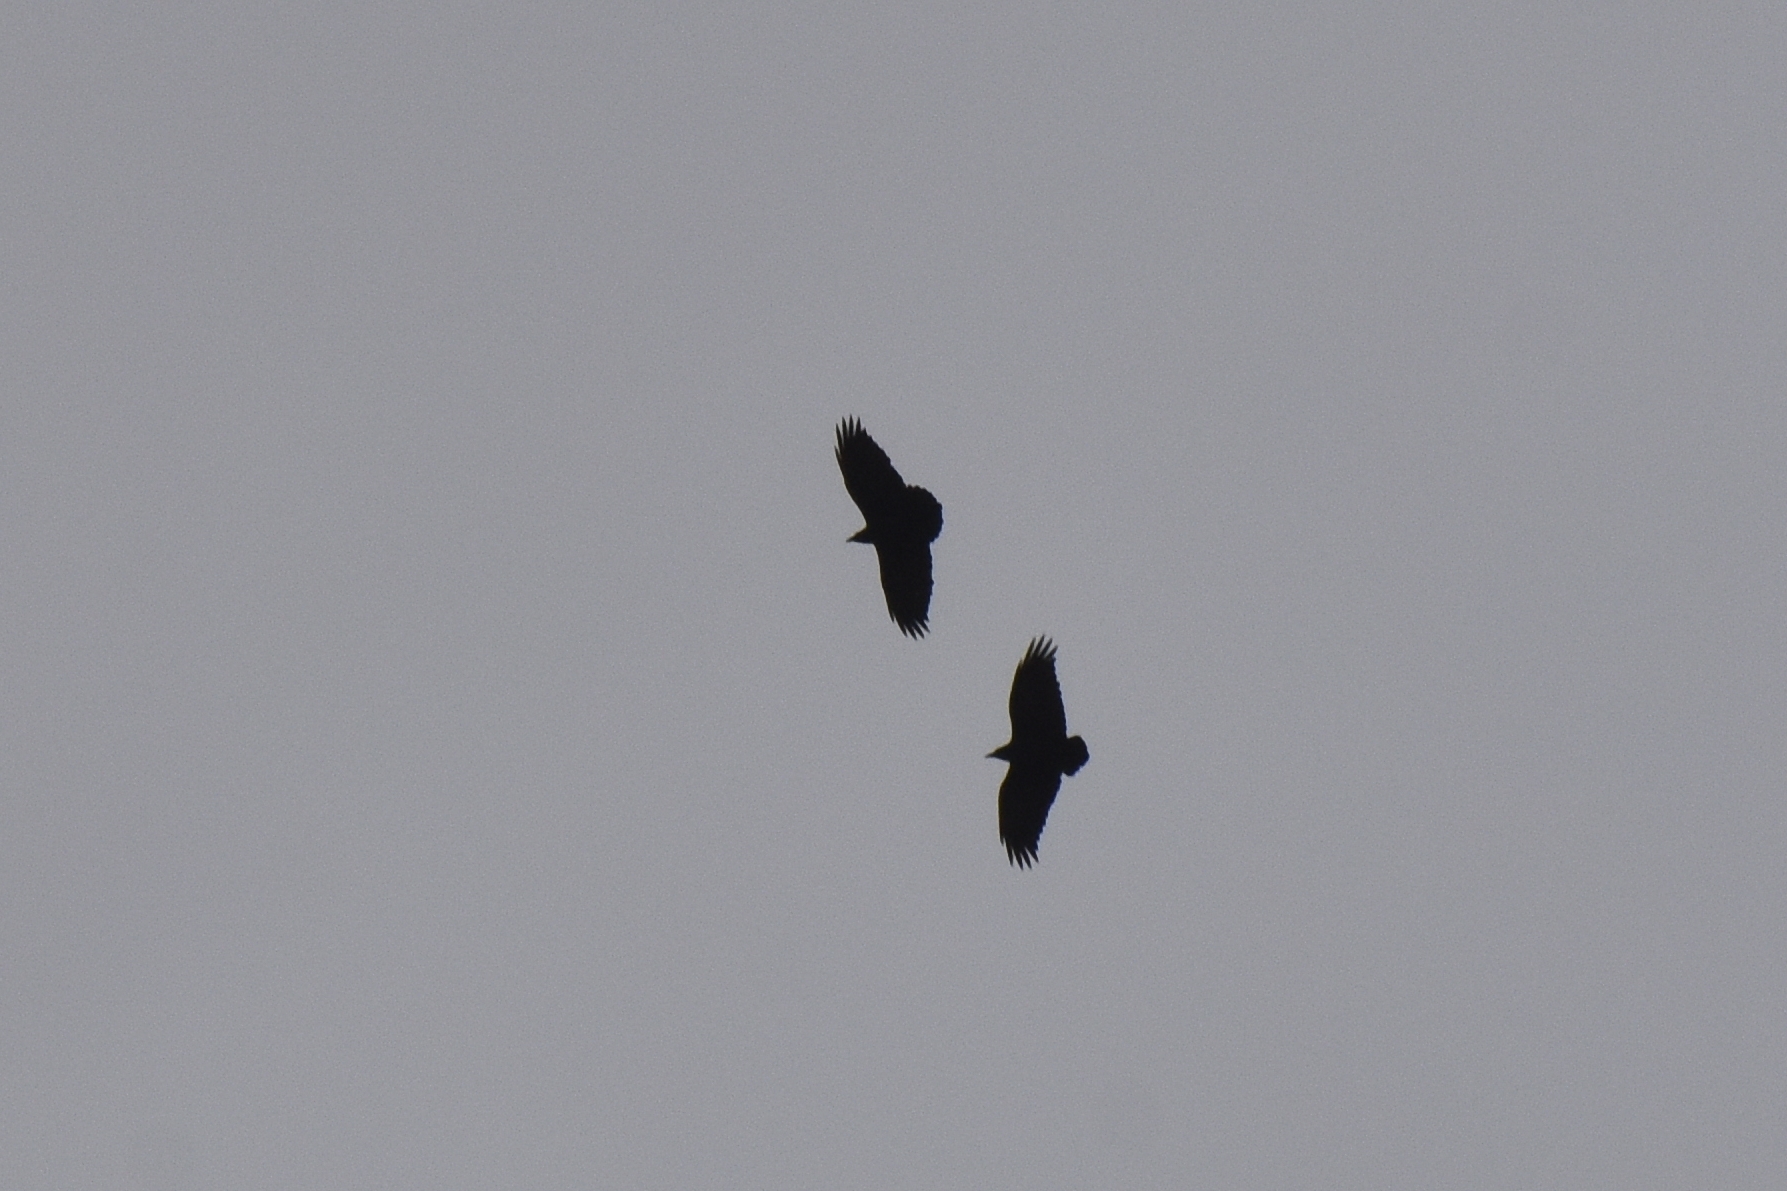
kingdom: Animalia
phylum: Chordata
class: Aves
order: Passeriformes
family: Corvidae
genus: Corvus
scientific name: Corvus rhipidurus
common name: Fan-tailed raven
